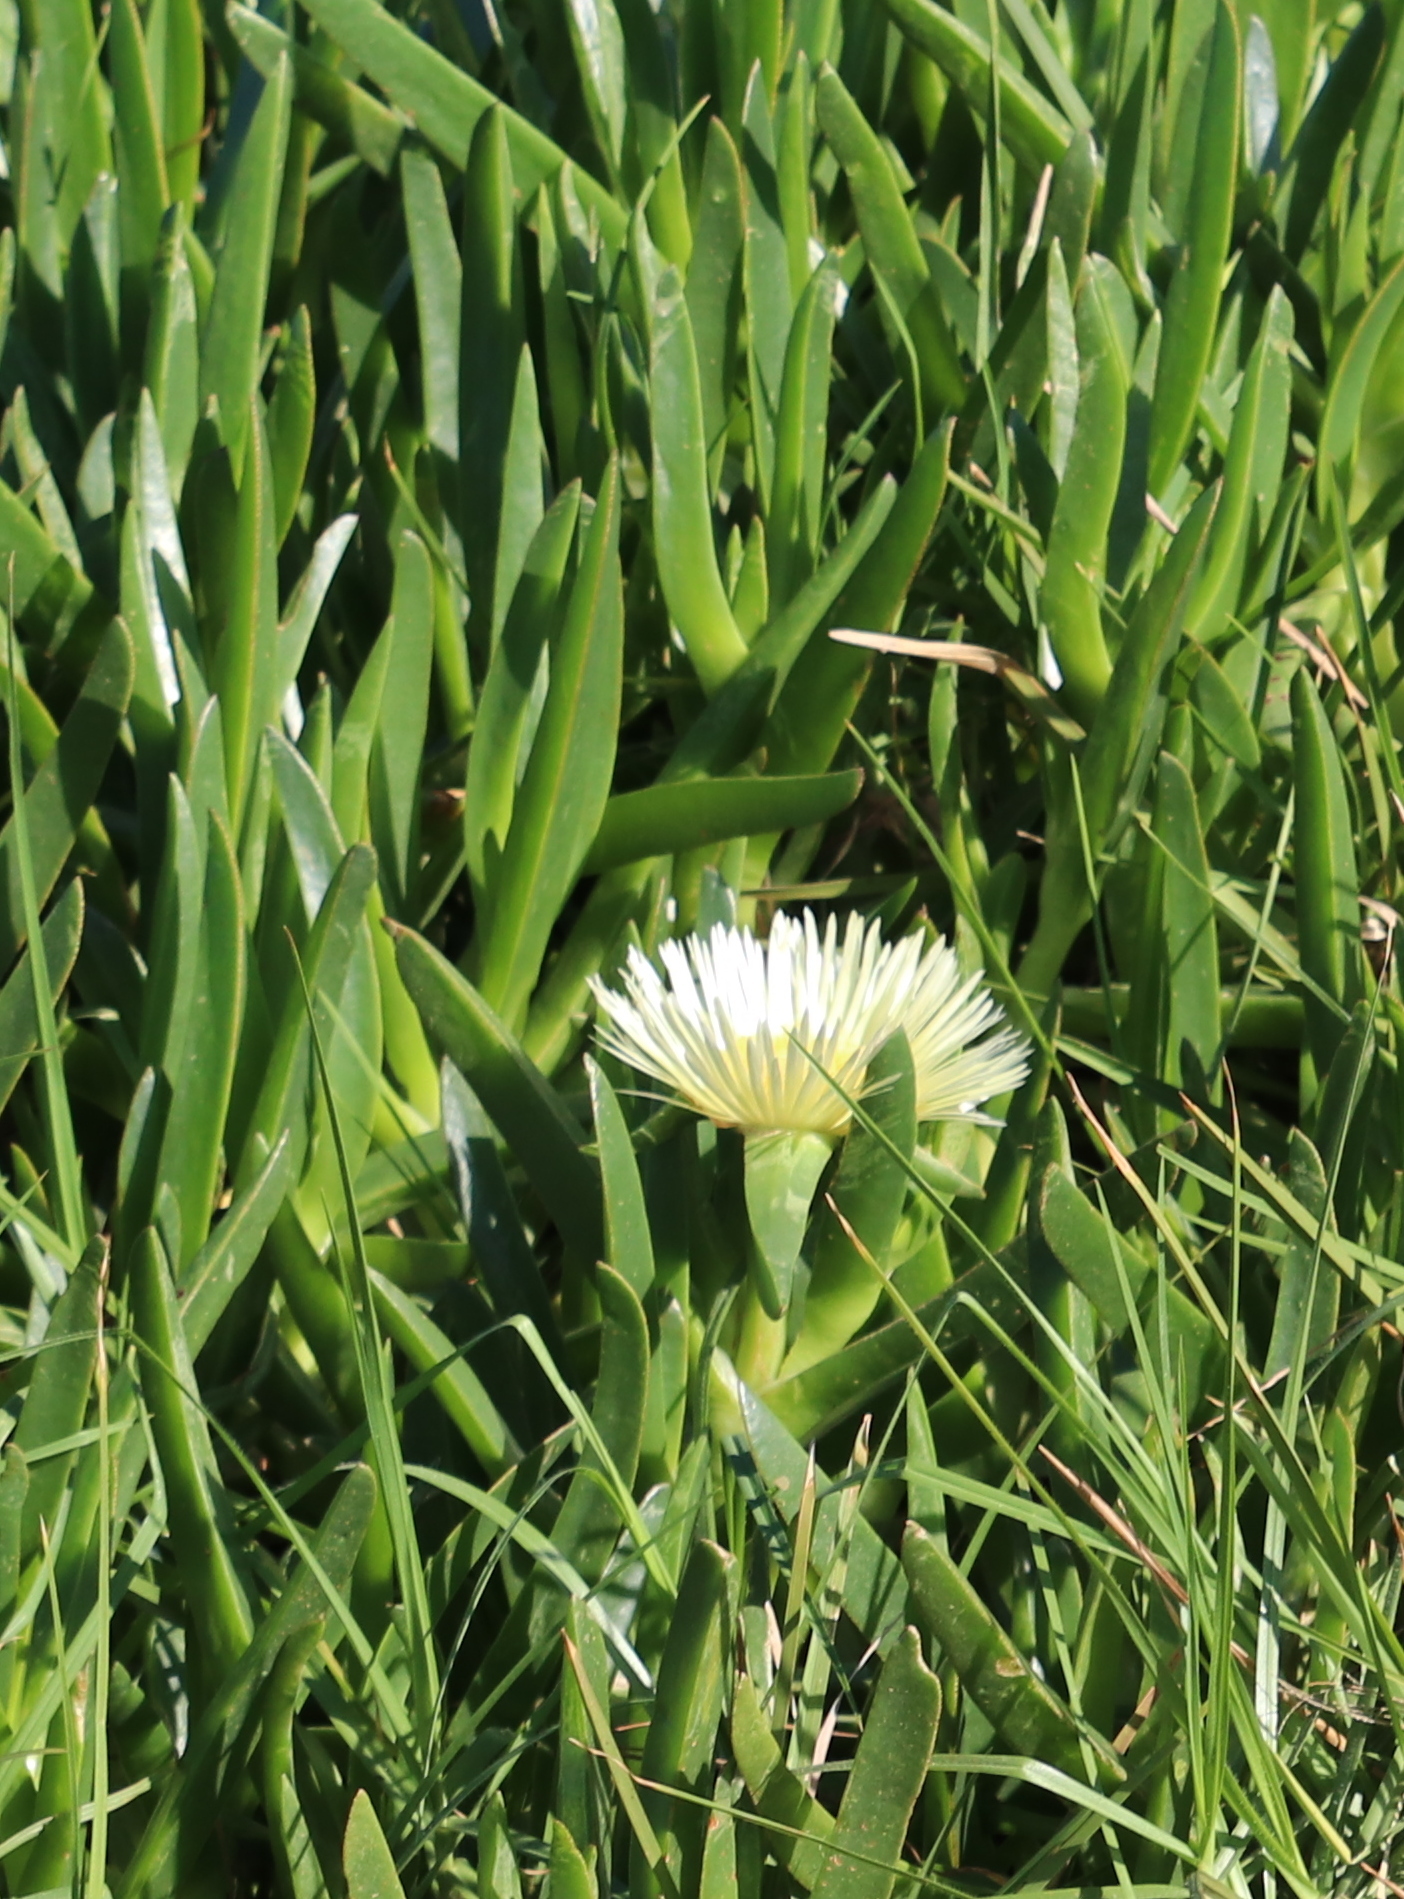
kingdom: Plantae
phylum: Tracheophyta
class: Magnoliopsida
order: Caryophyllales
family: Aizoaceae
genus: Carpobrotus
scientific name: Carpobrotus edulis
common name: Hottentot-fig
